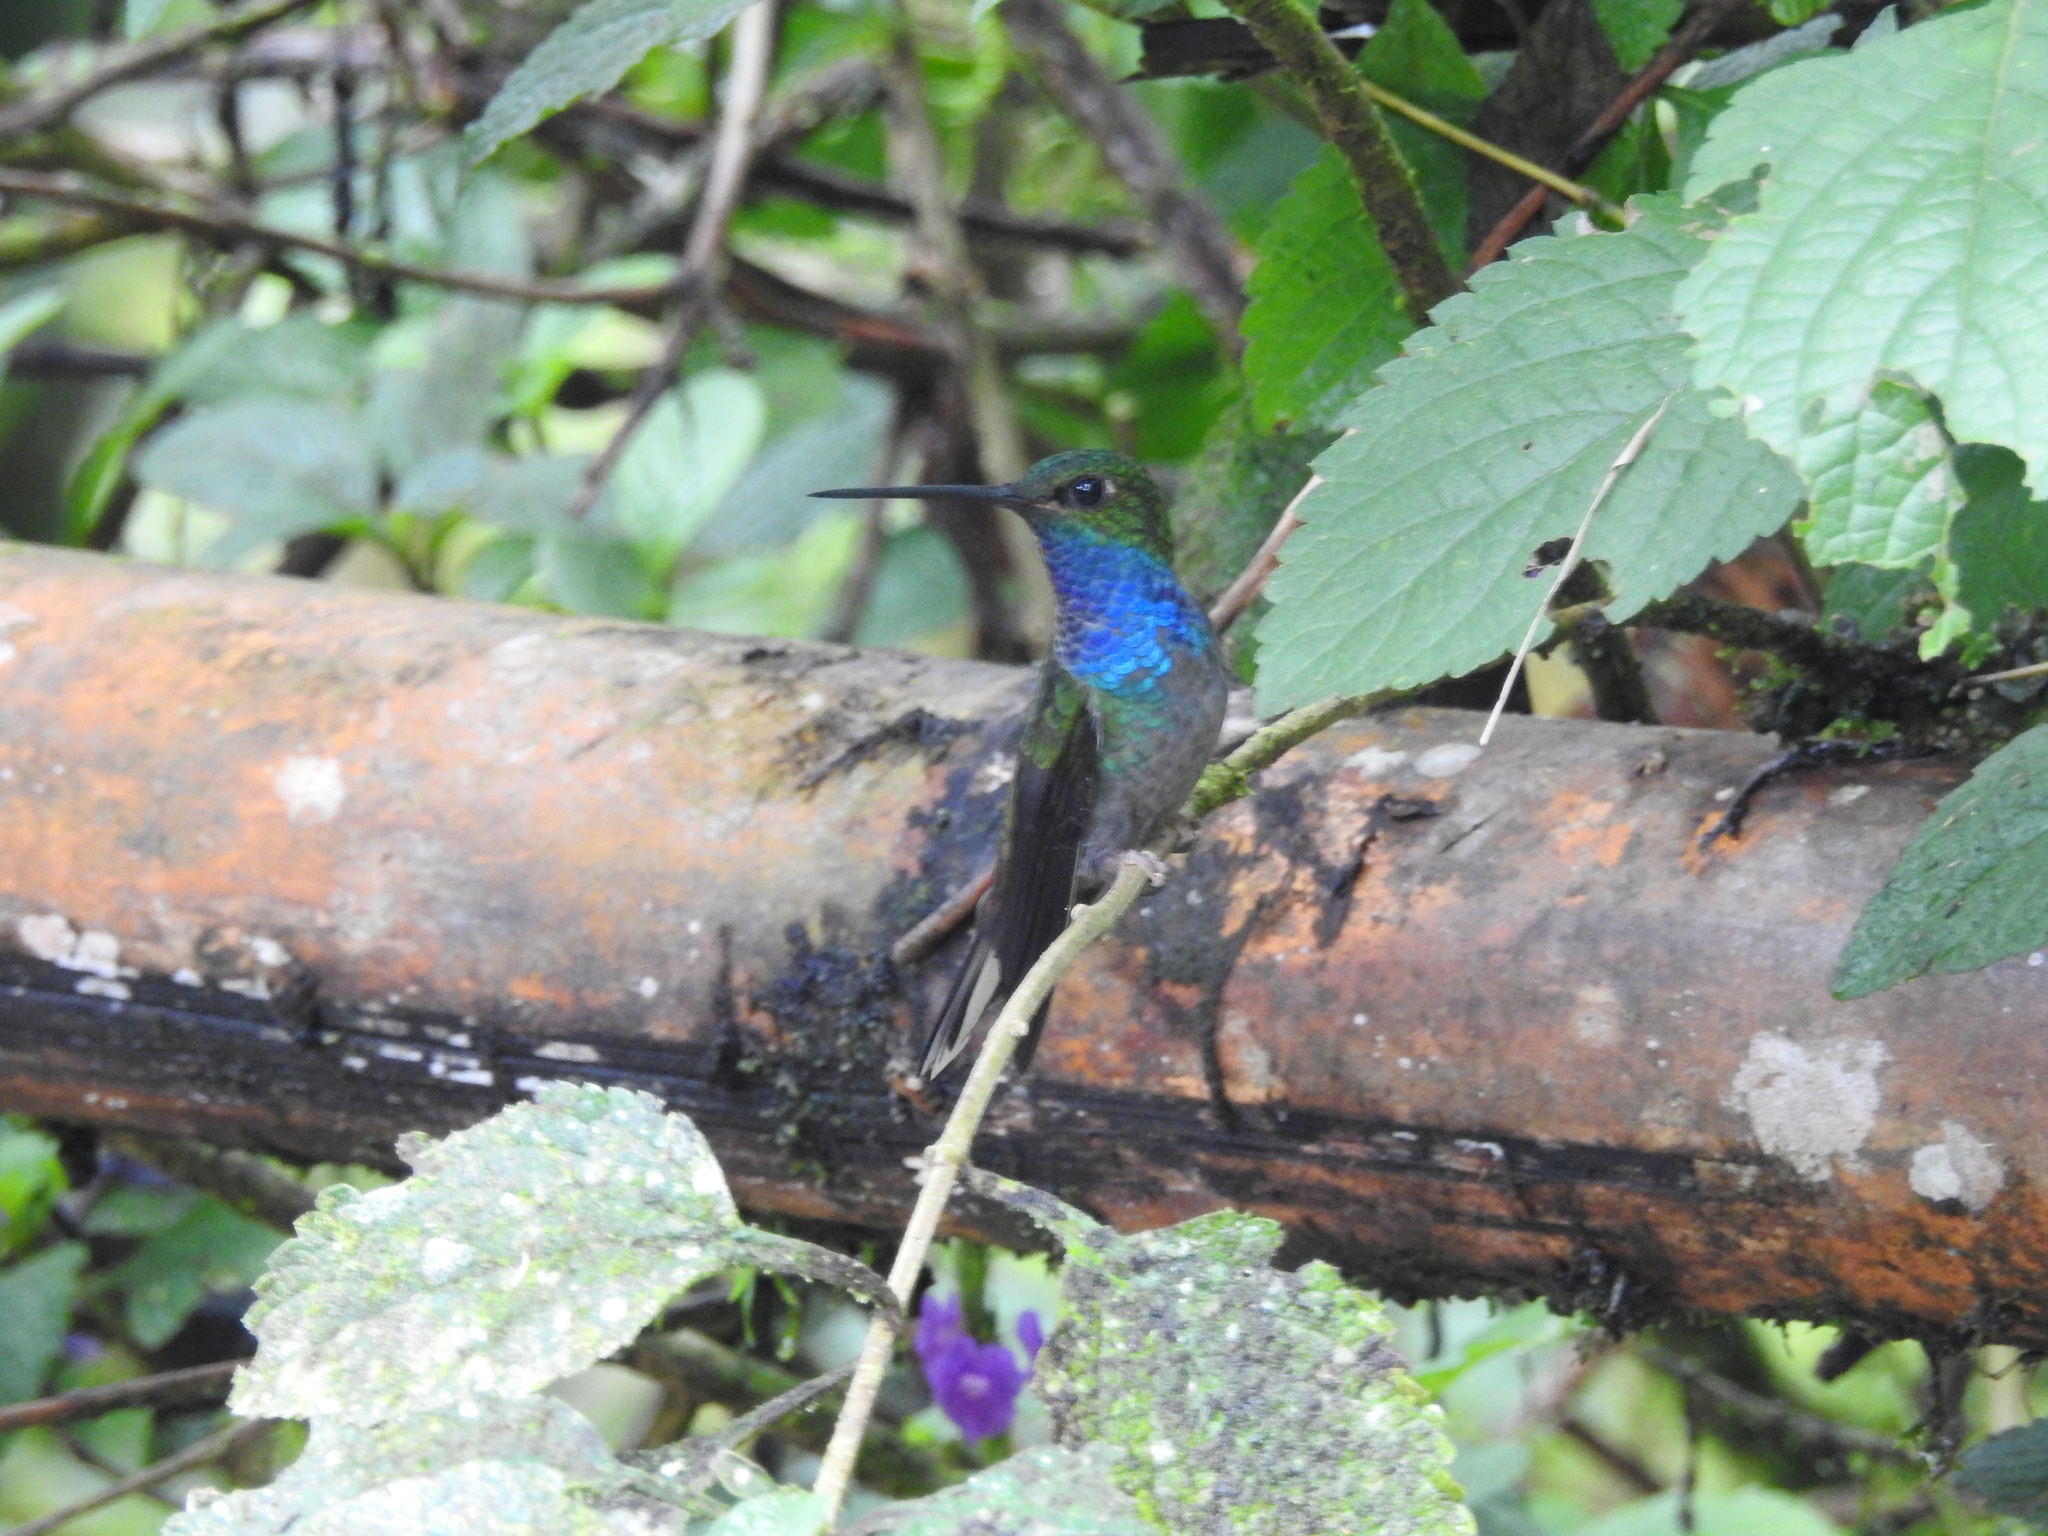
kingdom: Animalia
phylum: Chordata
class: Aves
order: Apodiformes
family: Trochilidae
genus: Urochroa
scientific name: Urochroa leucura
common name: Green-backed hillstar
